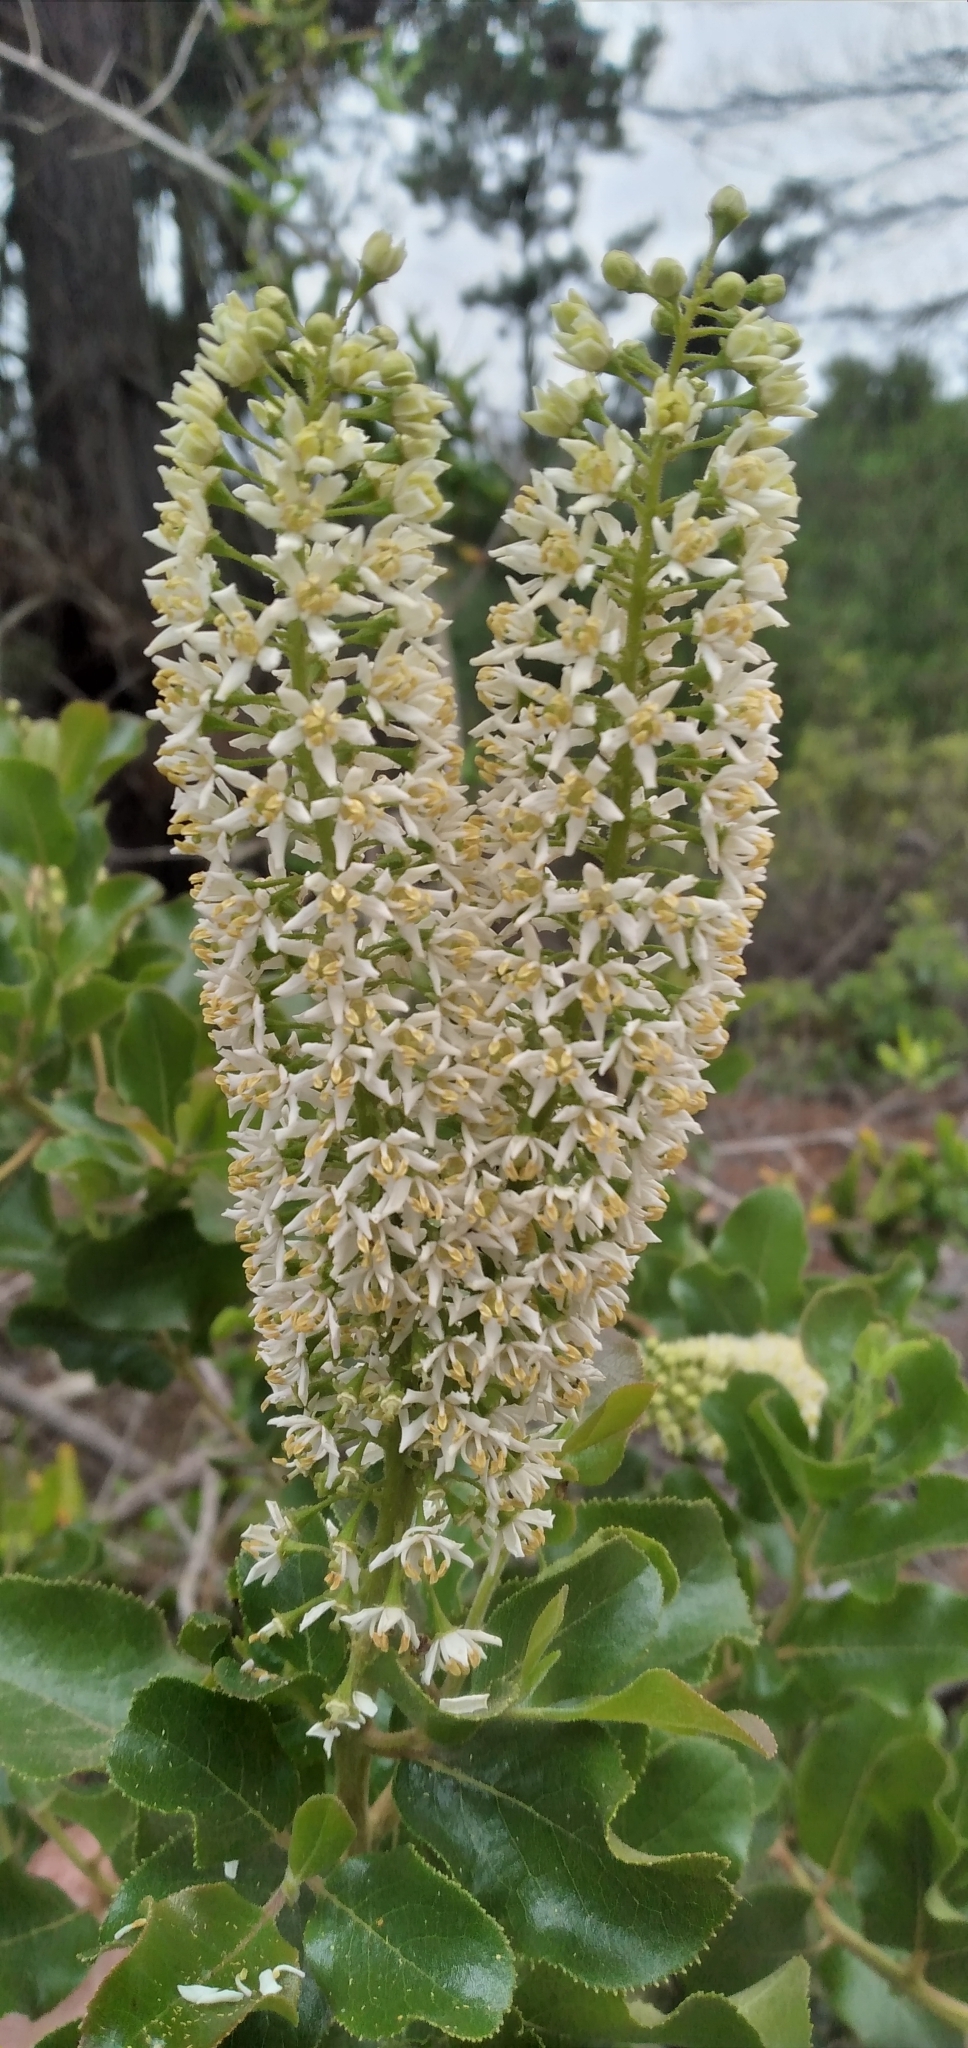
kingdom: Plantae
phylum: Tracheophyta
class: Magnoliopsida
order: Escalloniales
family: Escalloniaceae
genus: Escallonia
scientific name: Escallonia pulverulenta
